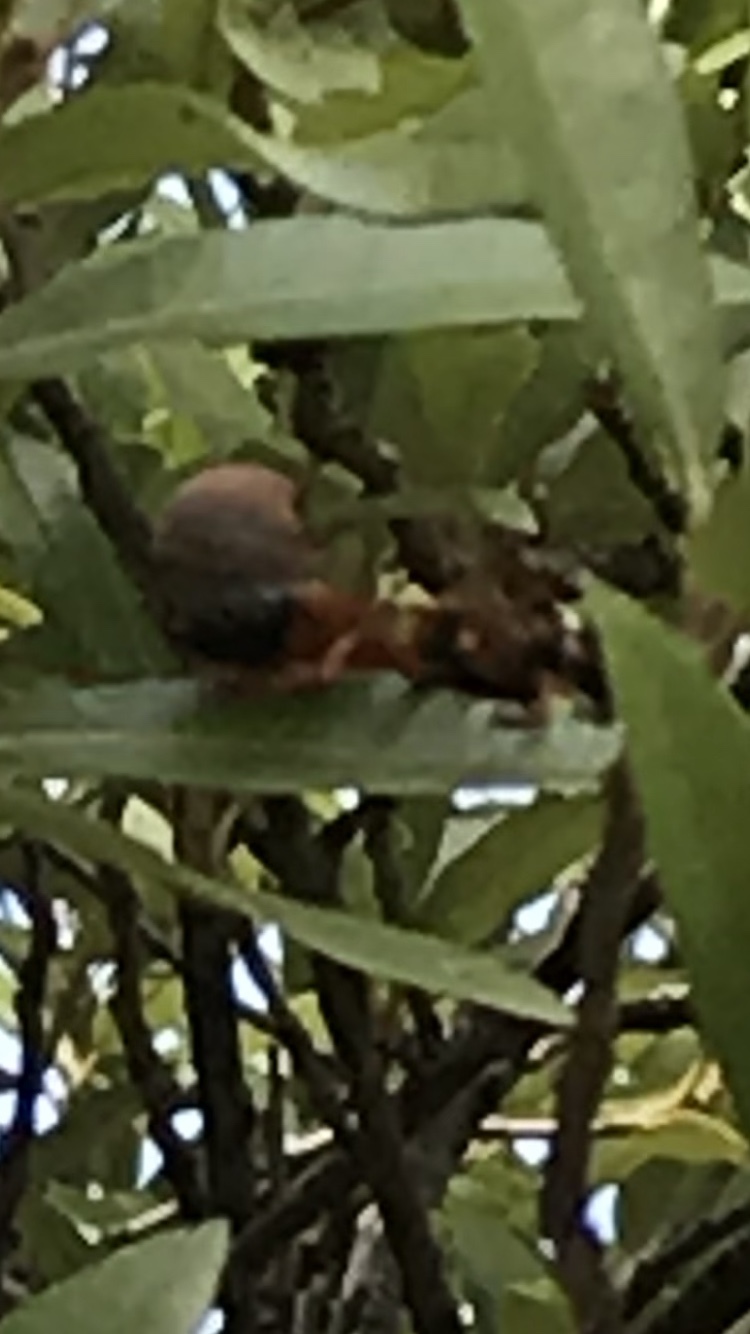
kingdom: Animalia
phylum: Arthropoda
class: Insecta
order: Hymenoptera
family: Sphecidae
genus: Sphex
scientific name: Sphex ichneumoneus
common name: Great golden digger wasp
